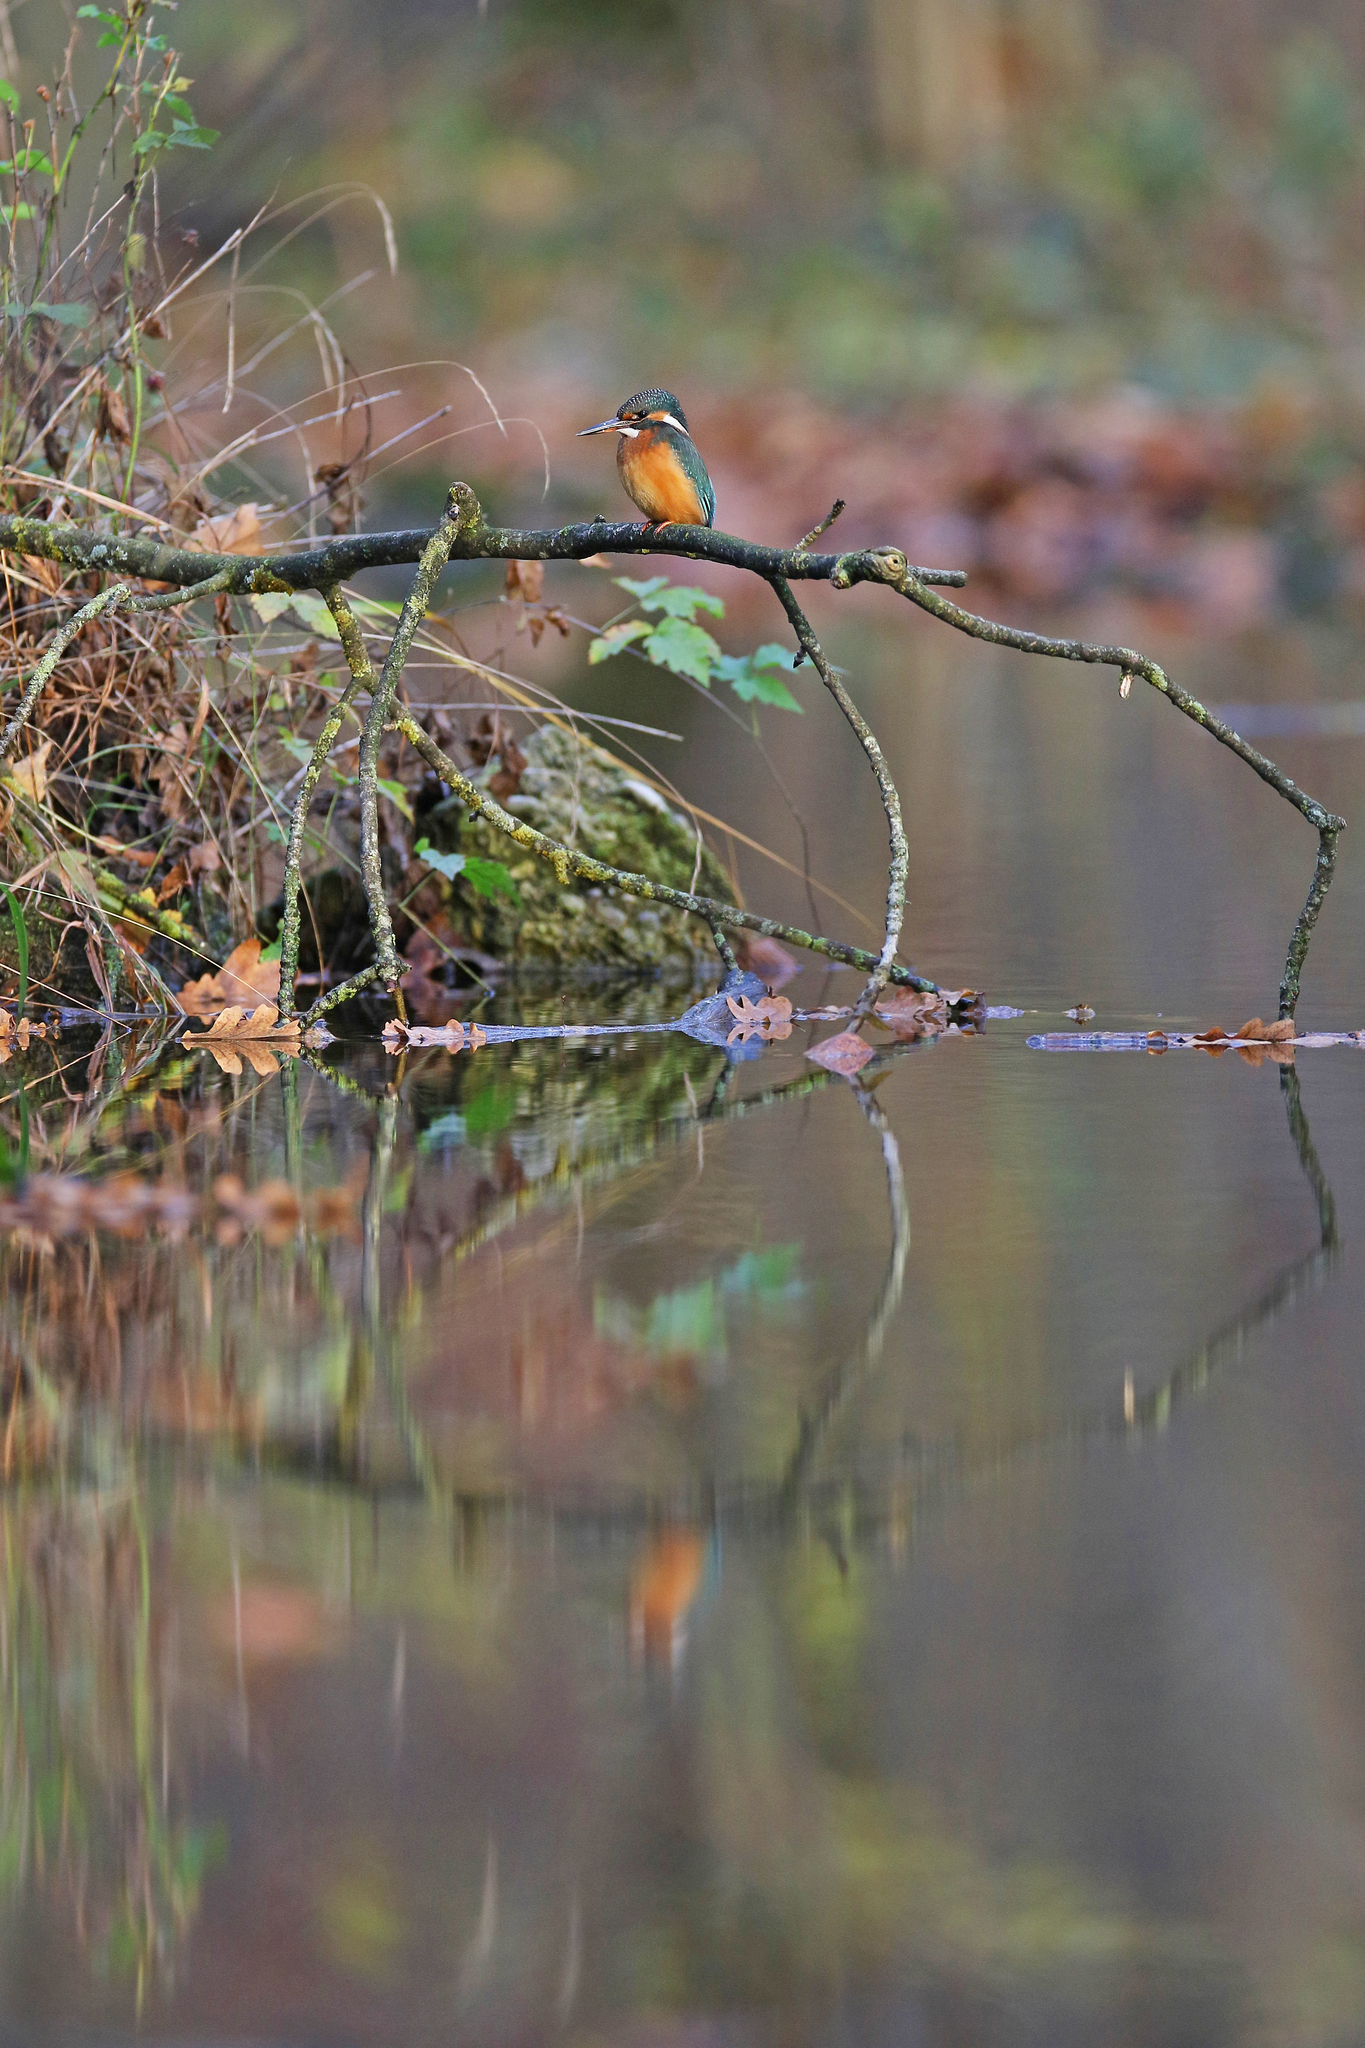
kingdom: Animalia
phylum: Chordata
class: Aves
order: Coraciiformes
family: Alcedinidae
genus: Alcedo
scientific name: Alcedo atthis
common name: Common kingfisher
